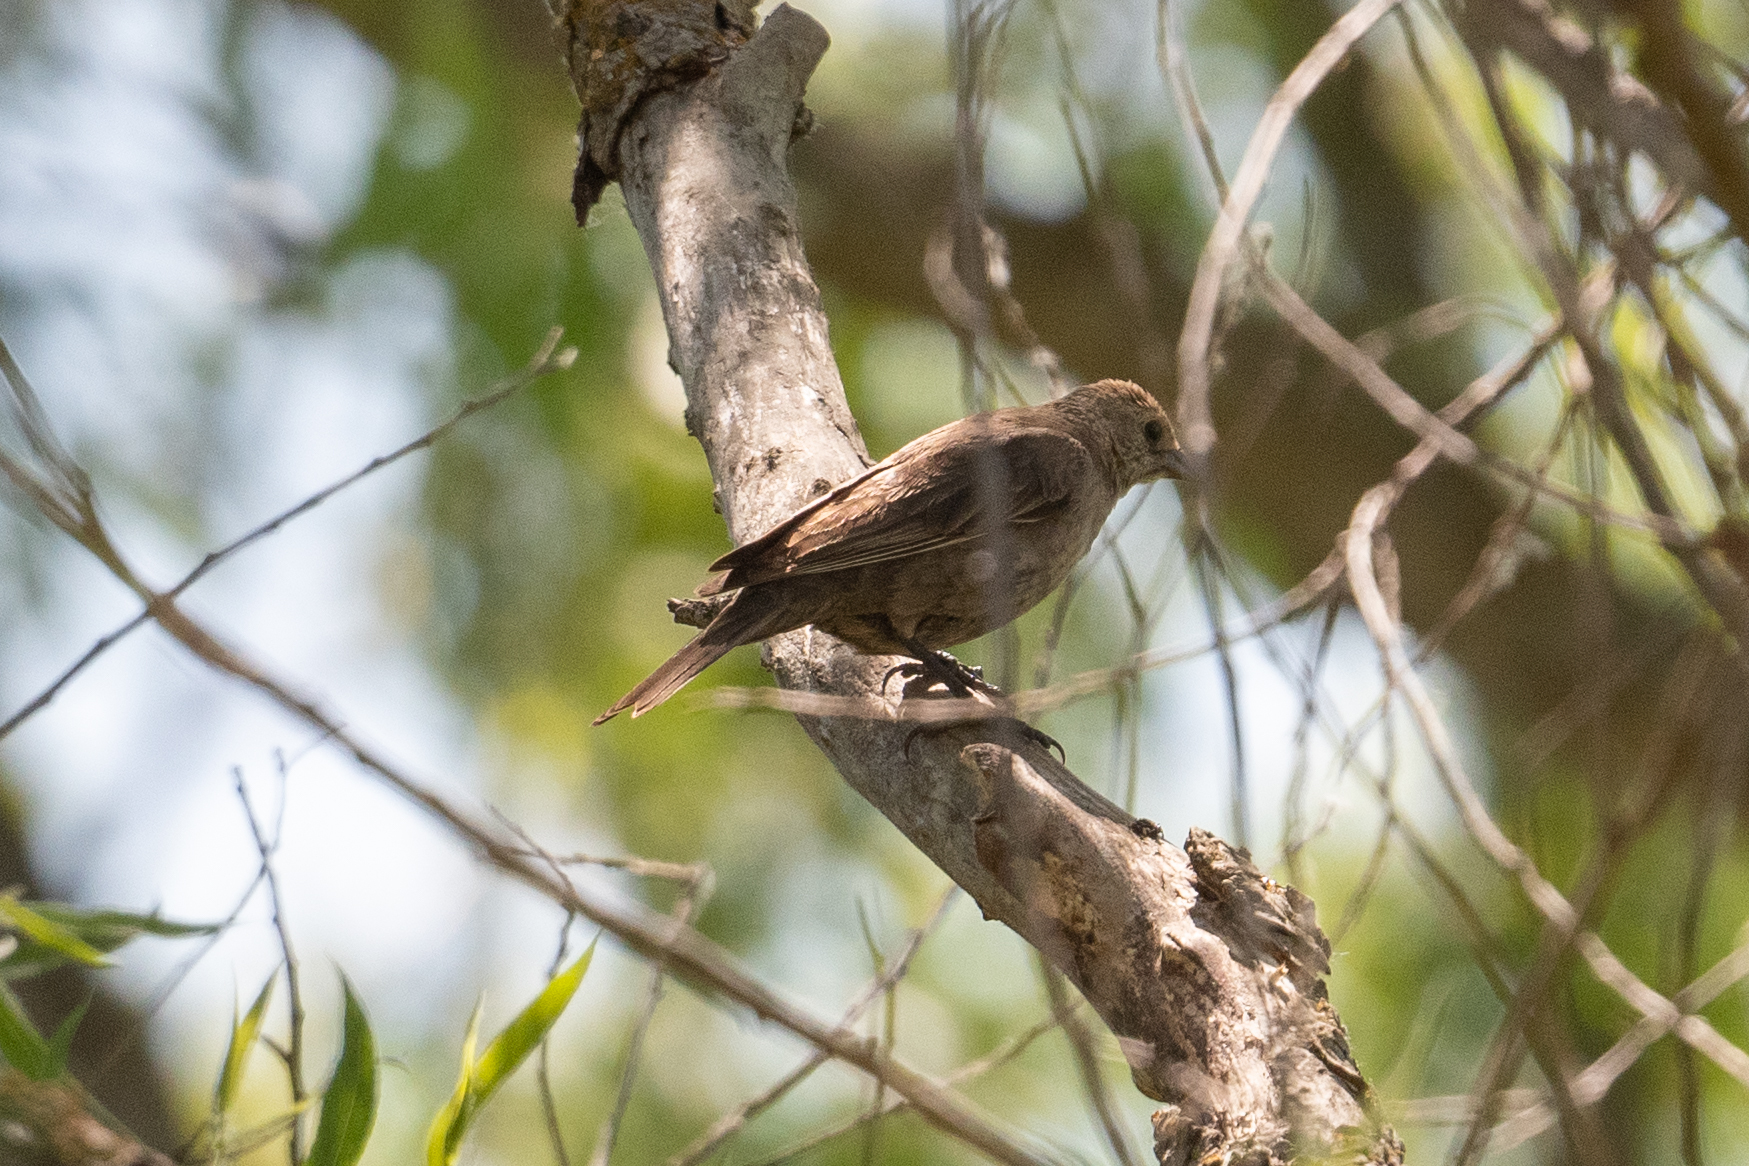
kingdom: Animalia
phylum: Chordata
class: Aves
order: Passeriformes
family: Icteridae
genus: Molothrus
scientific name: Molothrus ater
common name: Brown-headed cowbird
